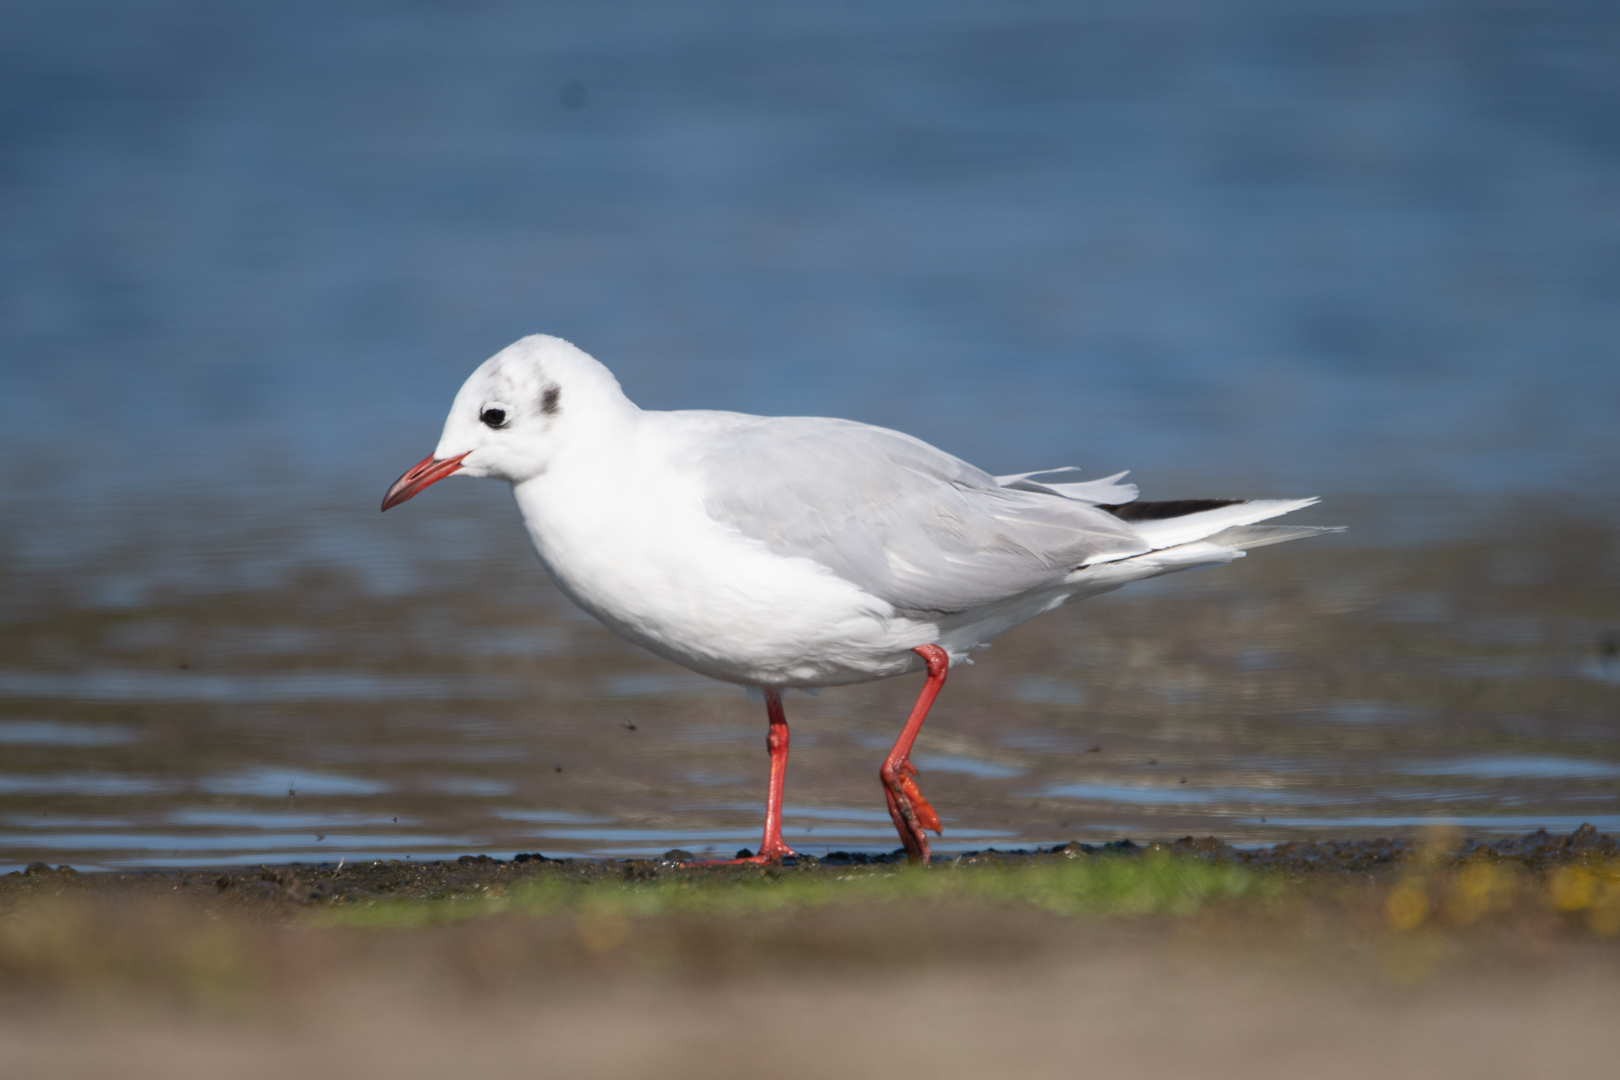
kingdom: Animalia
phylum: Chordata
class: Aves
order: Charadriiformes
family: Laridae
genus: Chroicocephalus
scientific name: Chroicocephalus maculipennis
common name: Brown-hooded gull
